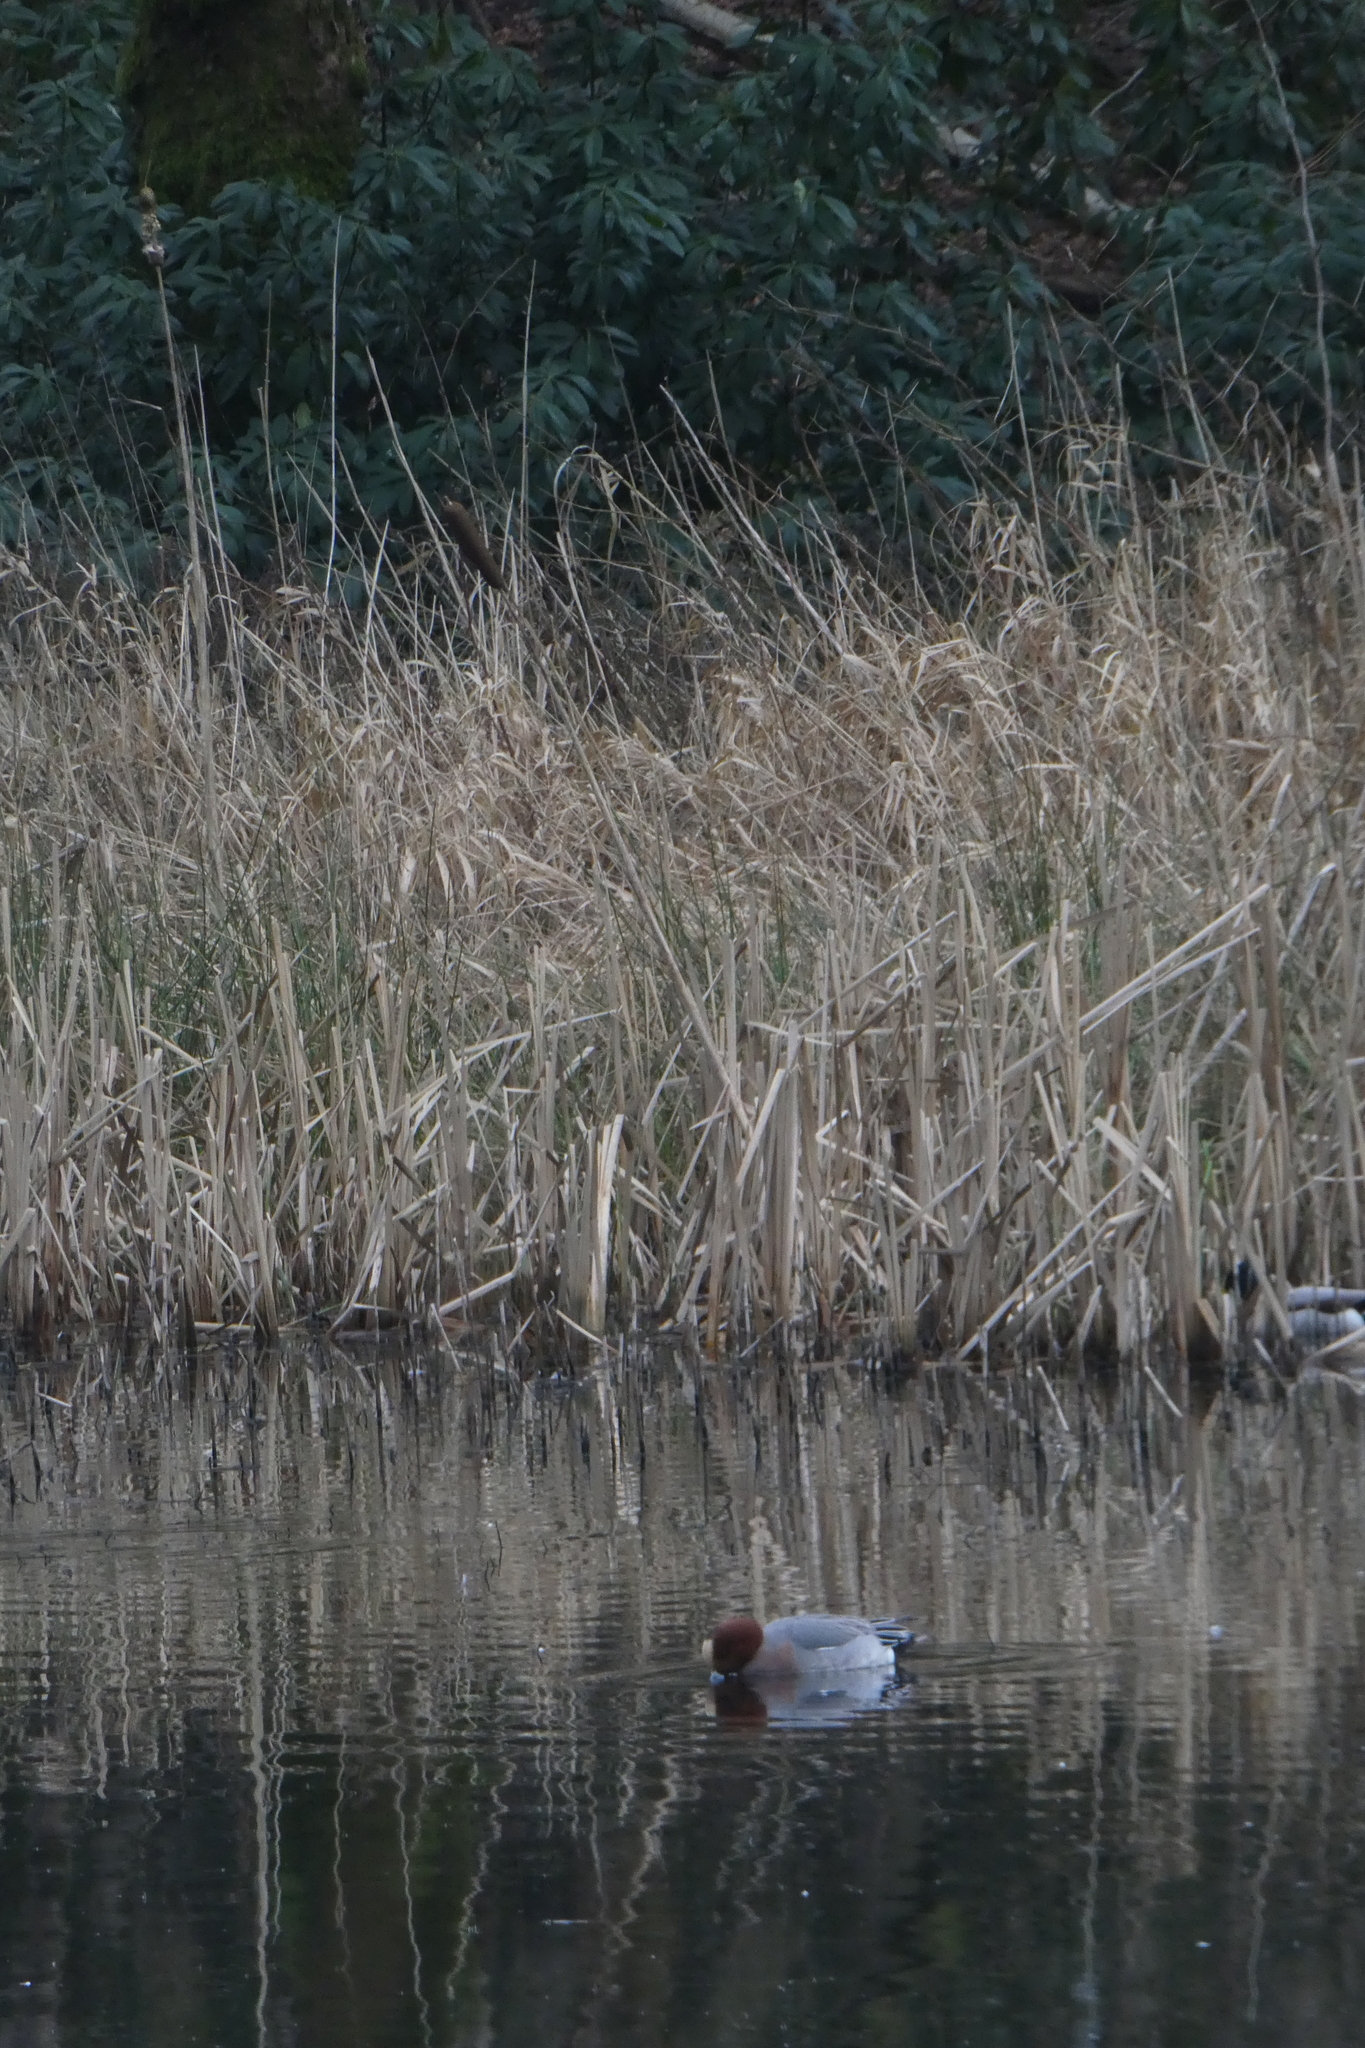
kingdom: Animalia
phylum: Chordata
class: Aves
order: Anseriformes
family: Anatidae
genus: Mareca
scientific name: Mareca penelope
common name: Eurasian wigeon
